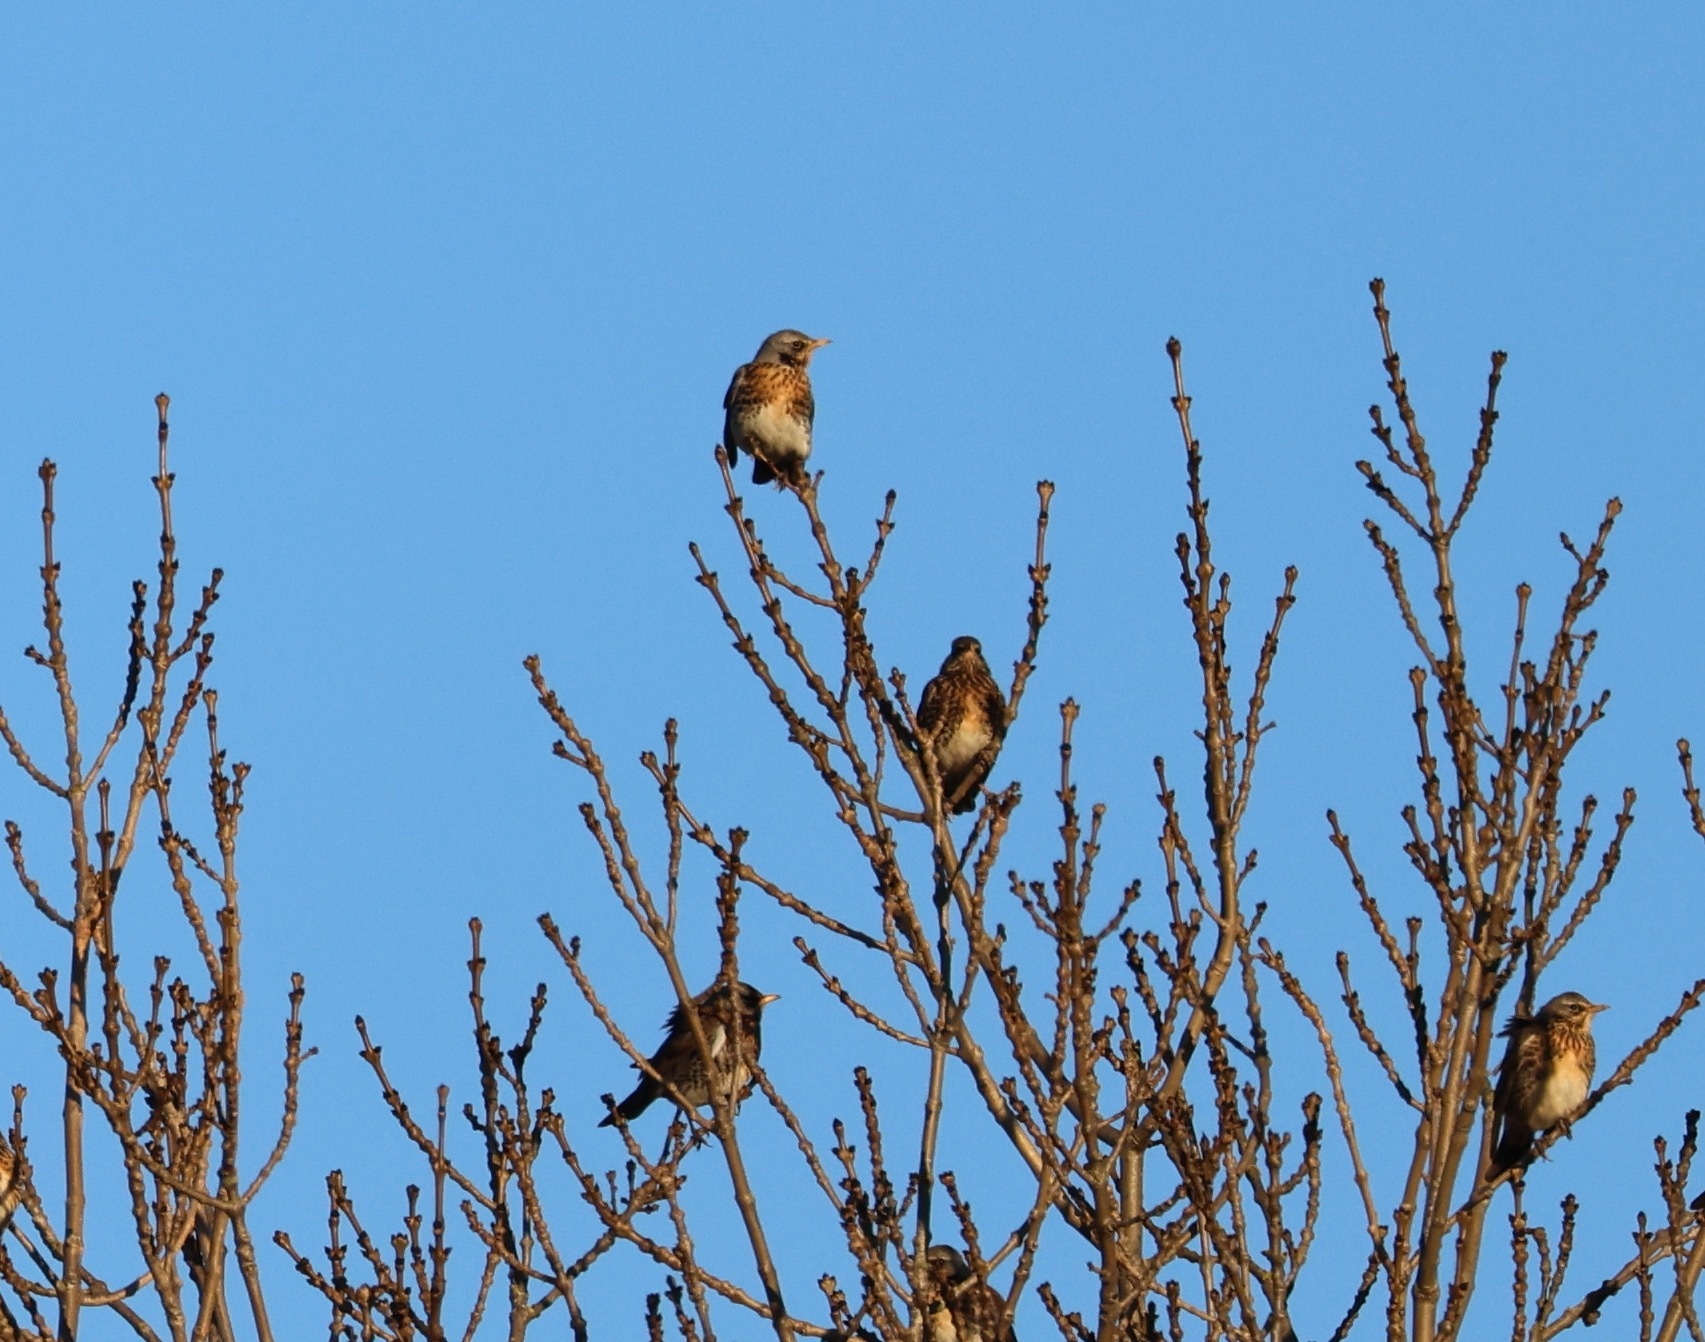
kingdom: Animalia
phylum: Chordata
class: Aves
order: Passeriformes
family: Turdidae
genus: Turdus
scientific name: Turdus pilaris
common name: Fieldfare
